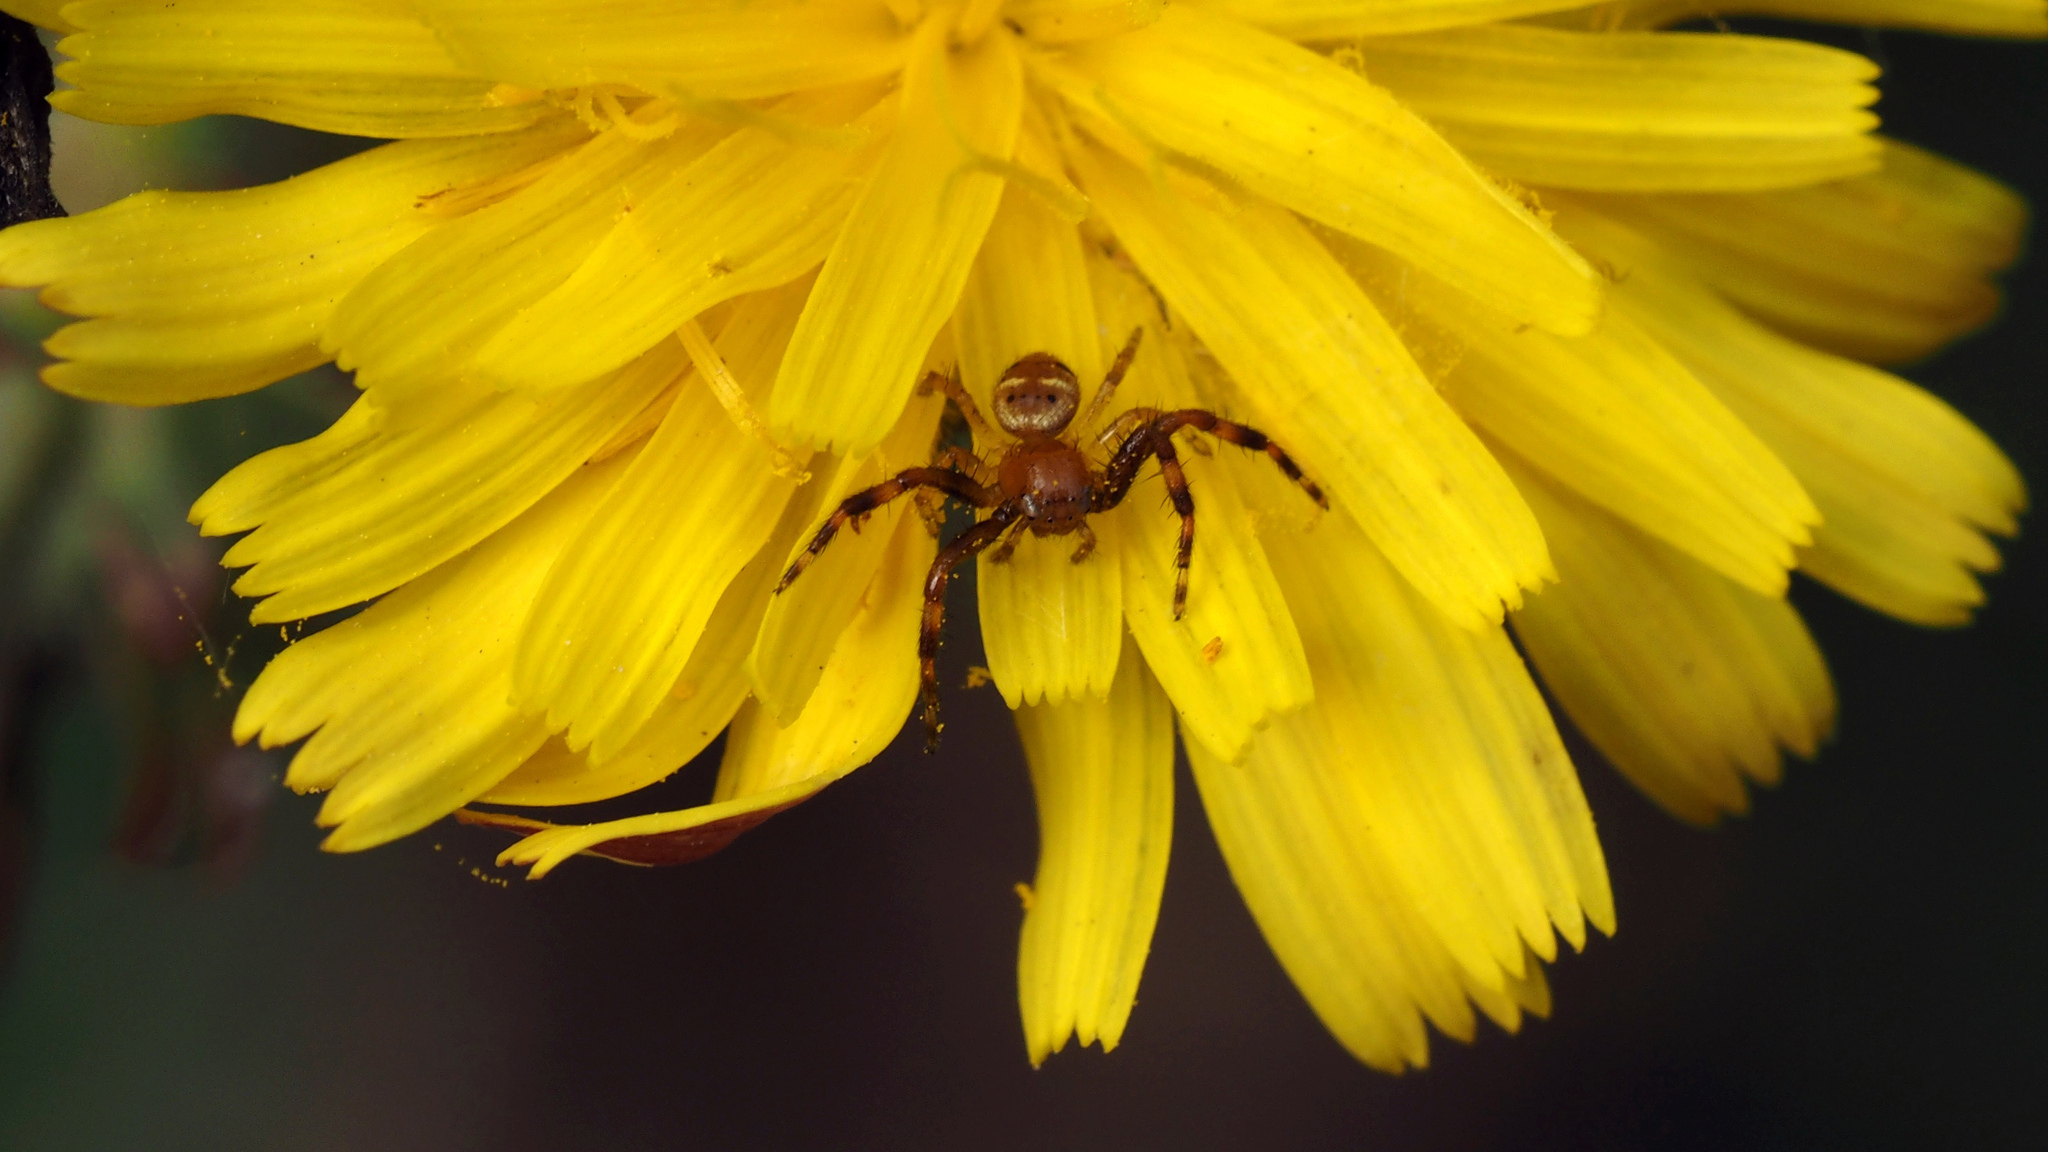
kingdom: Animalia
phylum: Arthropoda
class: Arachnida
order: Araneae
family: Thomisidae
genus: Synema
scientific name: Synema globosum
